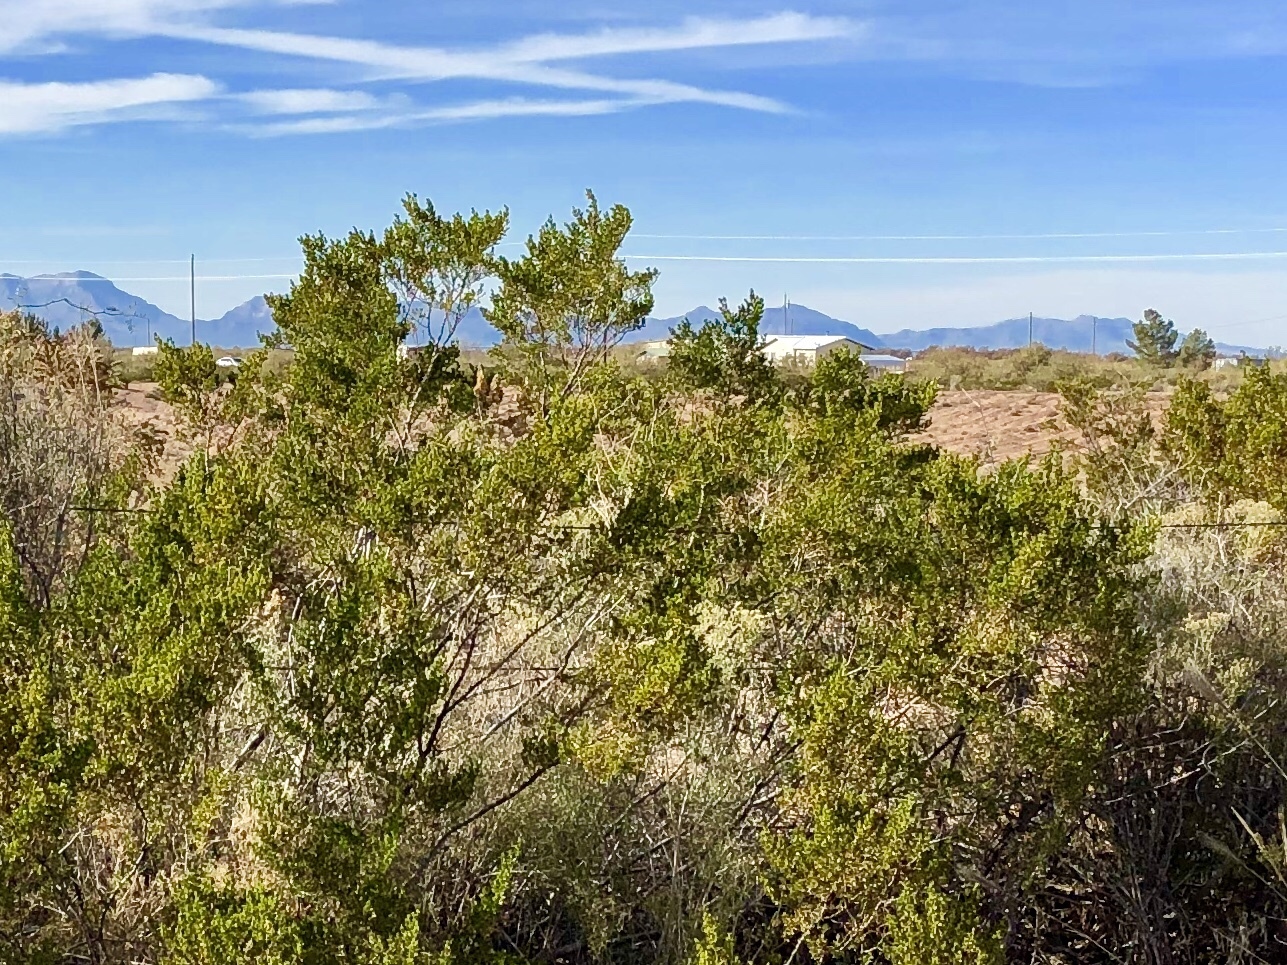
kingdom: Plantae
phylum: Tracheophyta
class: Magnoliopsida
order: Zygophyllales
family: Zygophyllaceae
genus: Larrea
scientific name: Larrea tridentata
